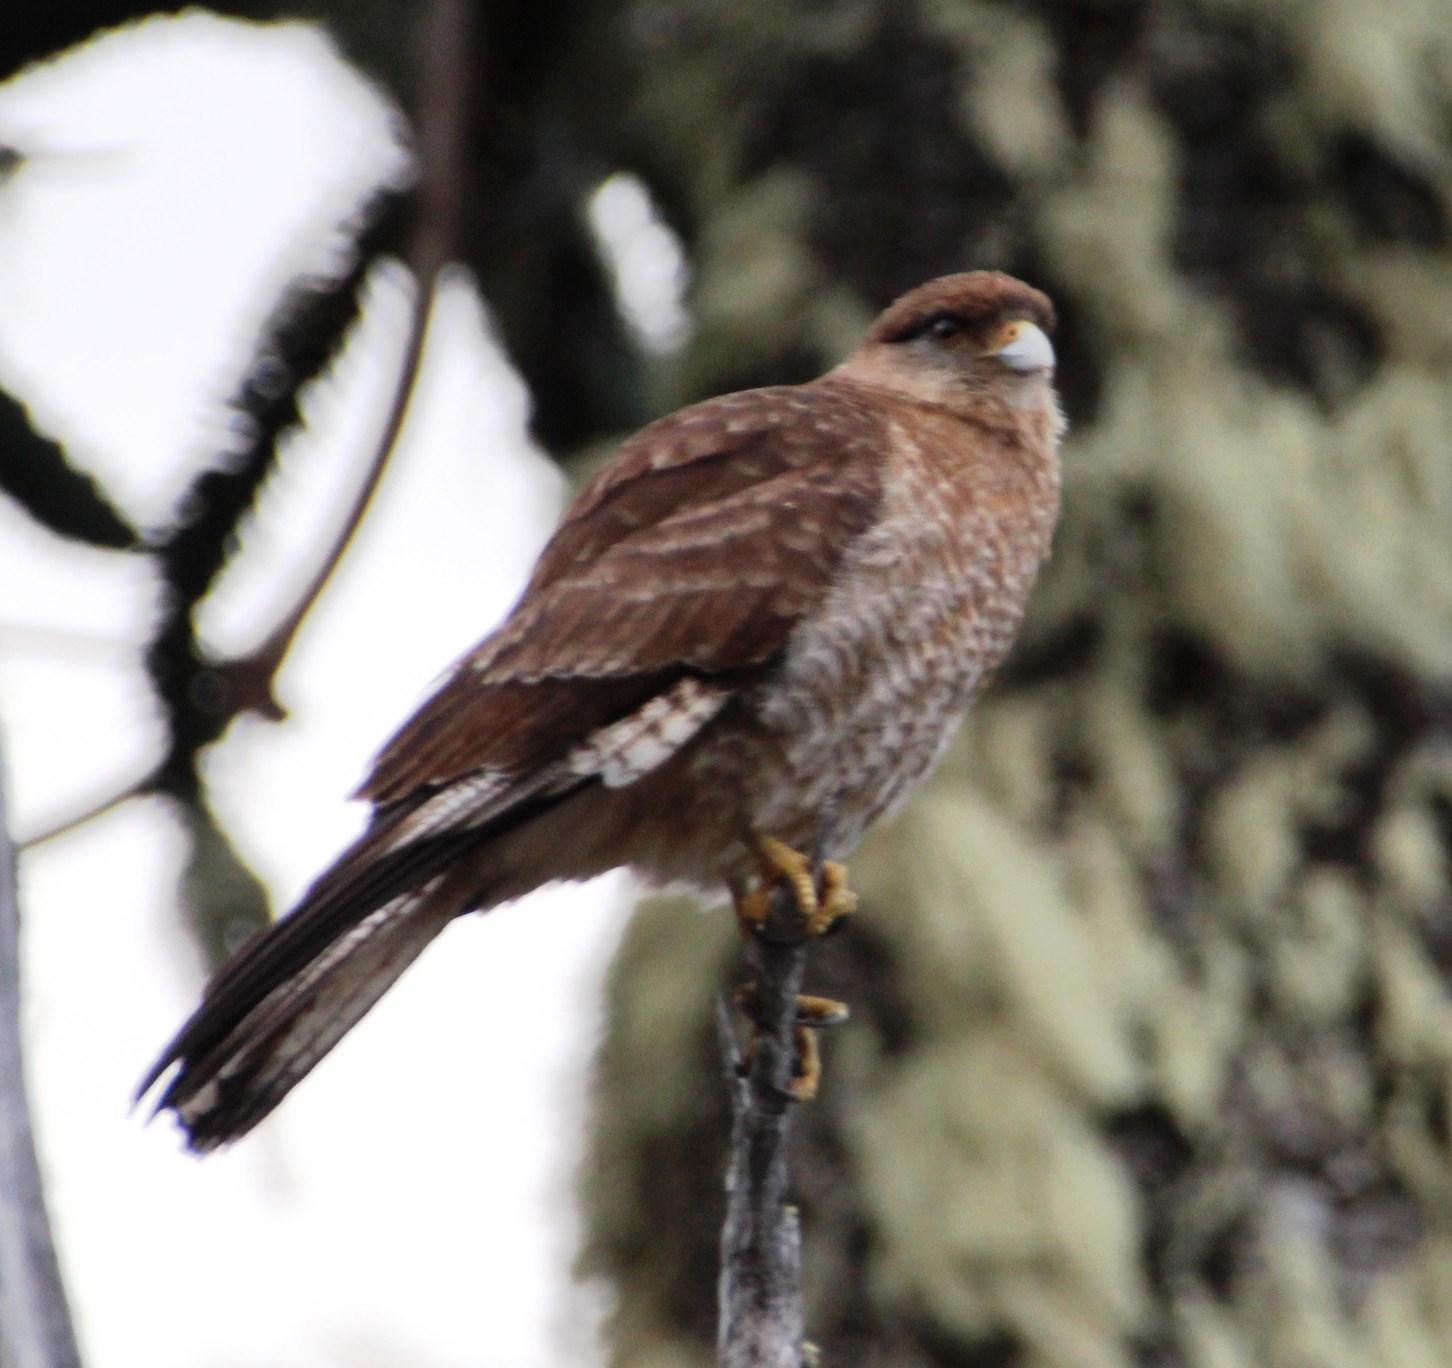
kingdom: Animalia
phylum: Chordata
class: Aves
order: Falconiformes
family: Falconidae
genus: Daptrius
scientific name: Daptrius
